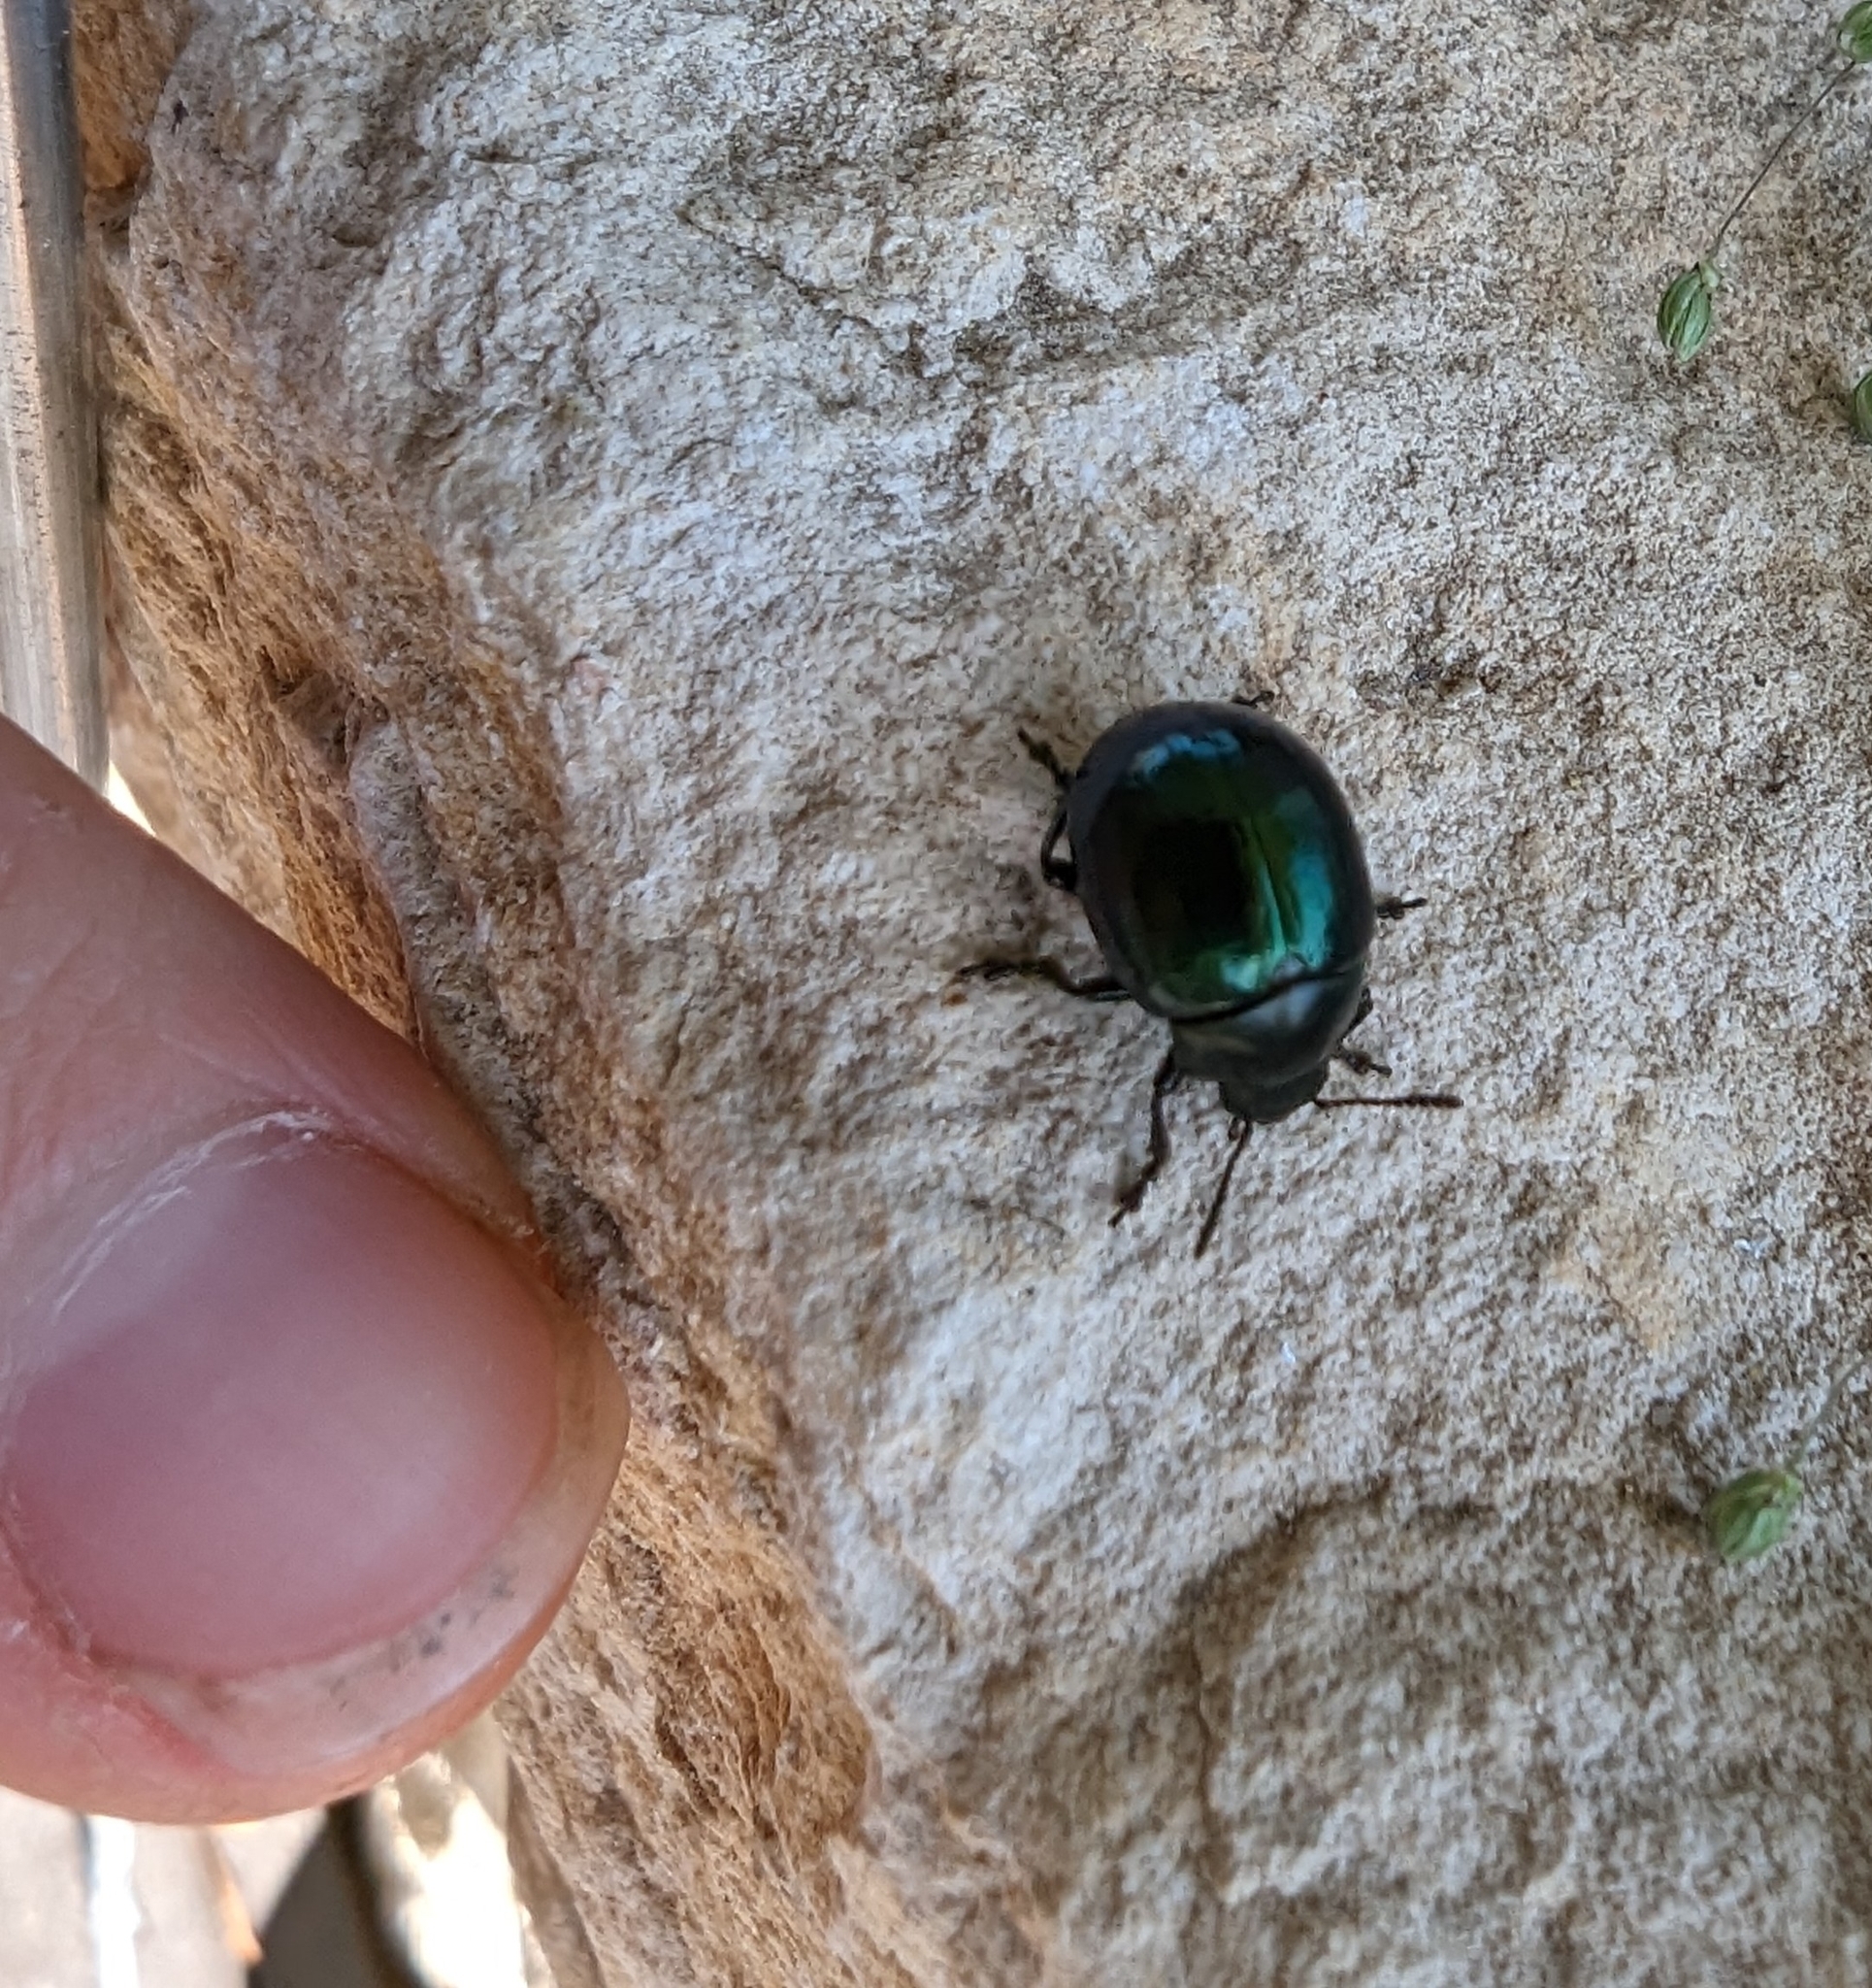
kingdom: Animalia
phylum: Arthropoda
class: Insecta
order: Coleoptera
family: Chrysomelidae
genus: Leptinotarsa
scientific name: Leptinotarsa haldemani
